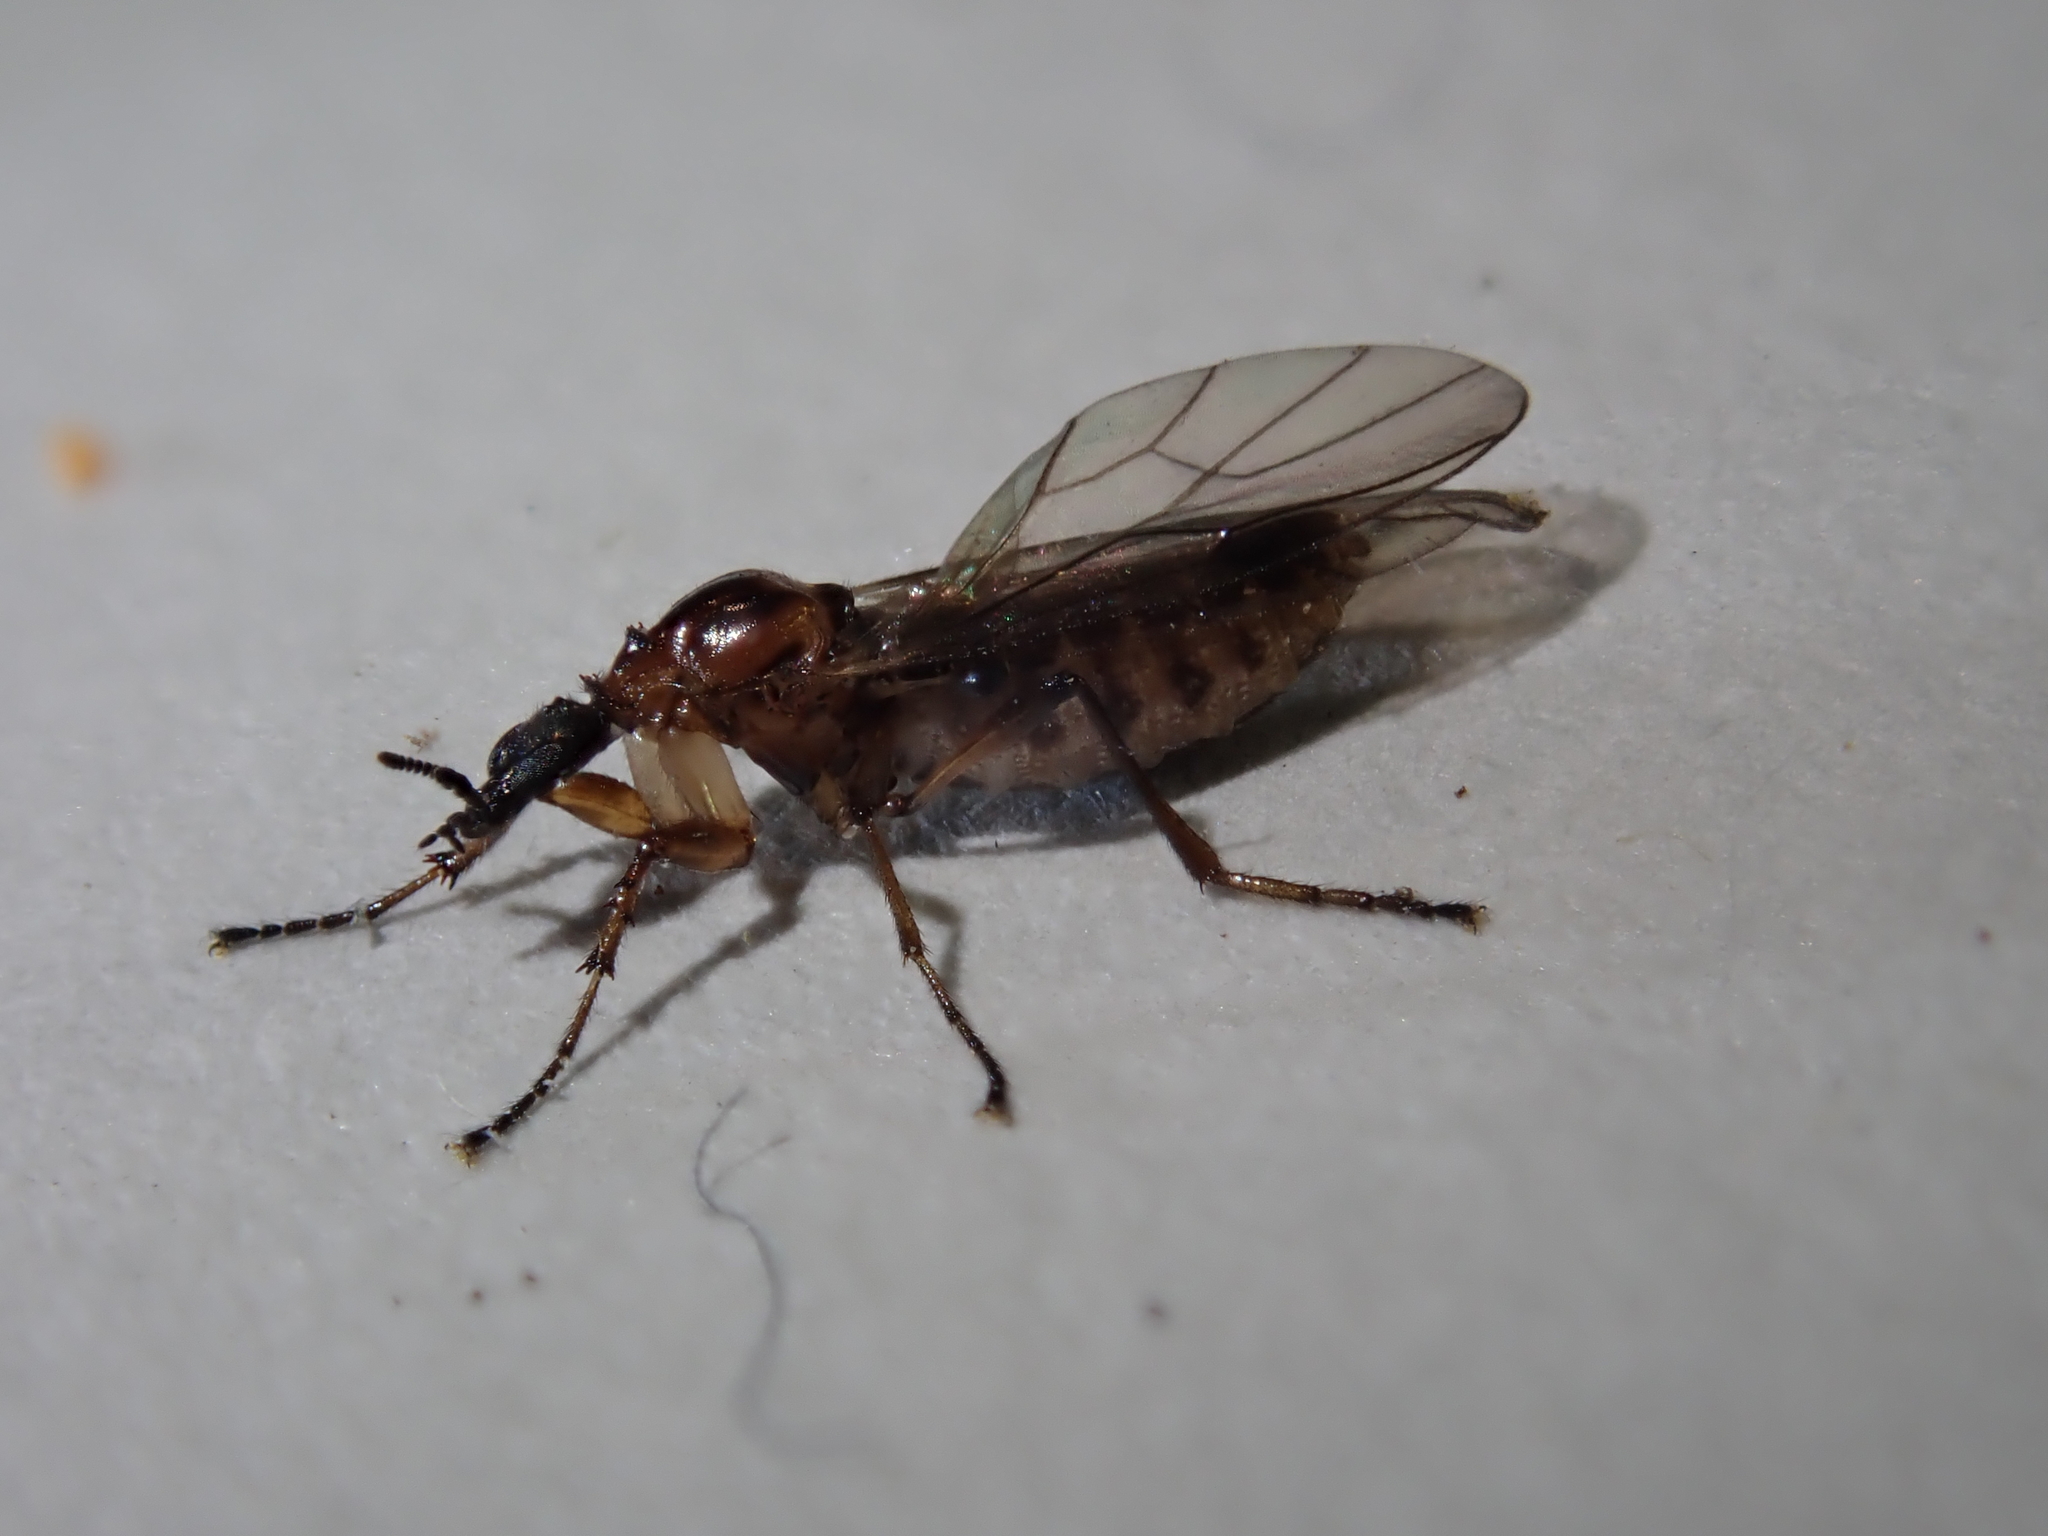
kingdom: Animalia
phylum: Arthropoda
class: Insecta
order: Diptera
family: Bibionidae
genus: Dilophus
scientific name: Dilophus neoinsolitus
